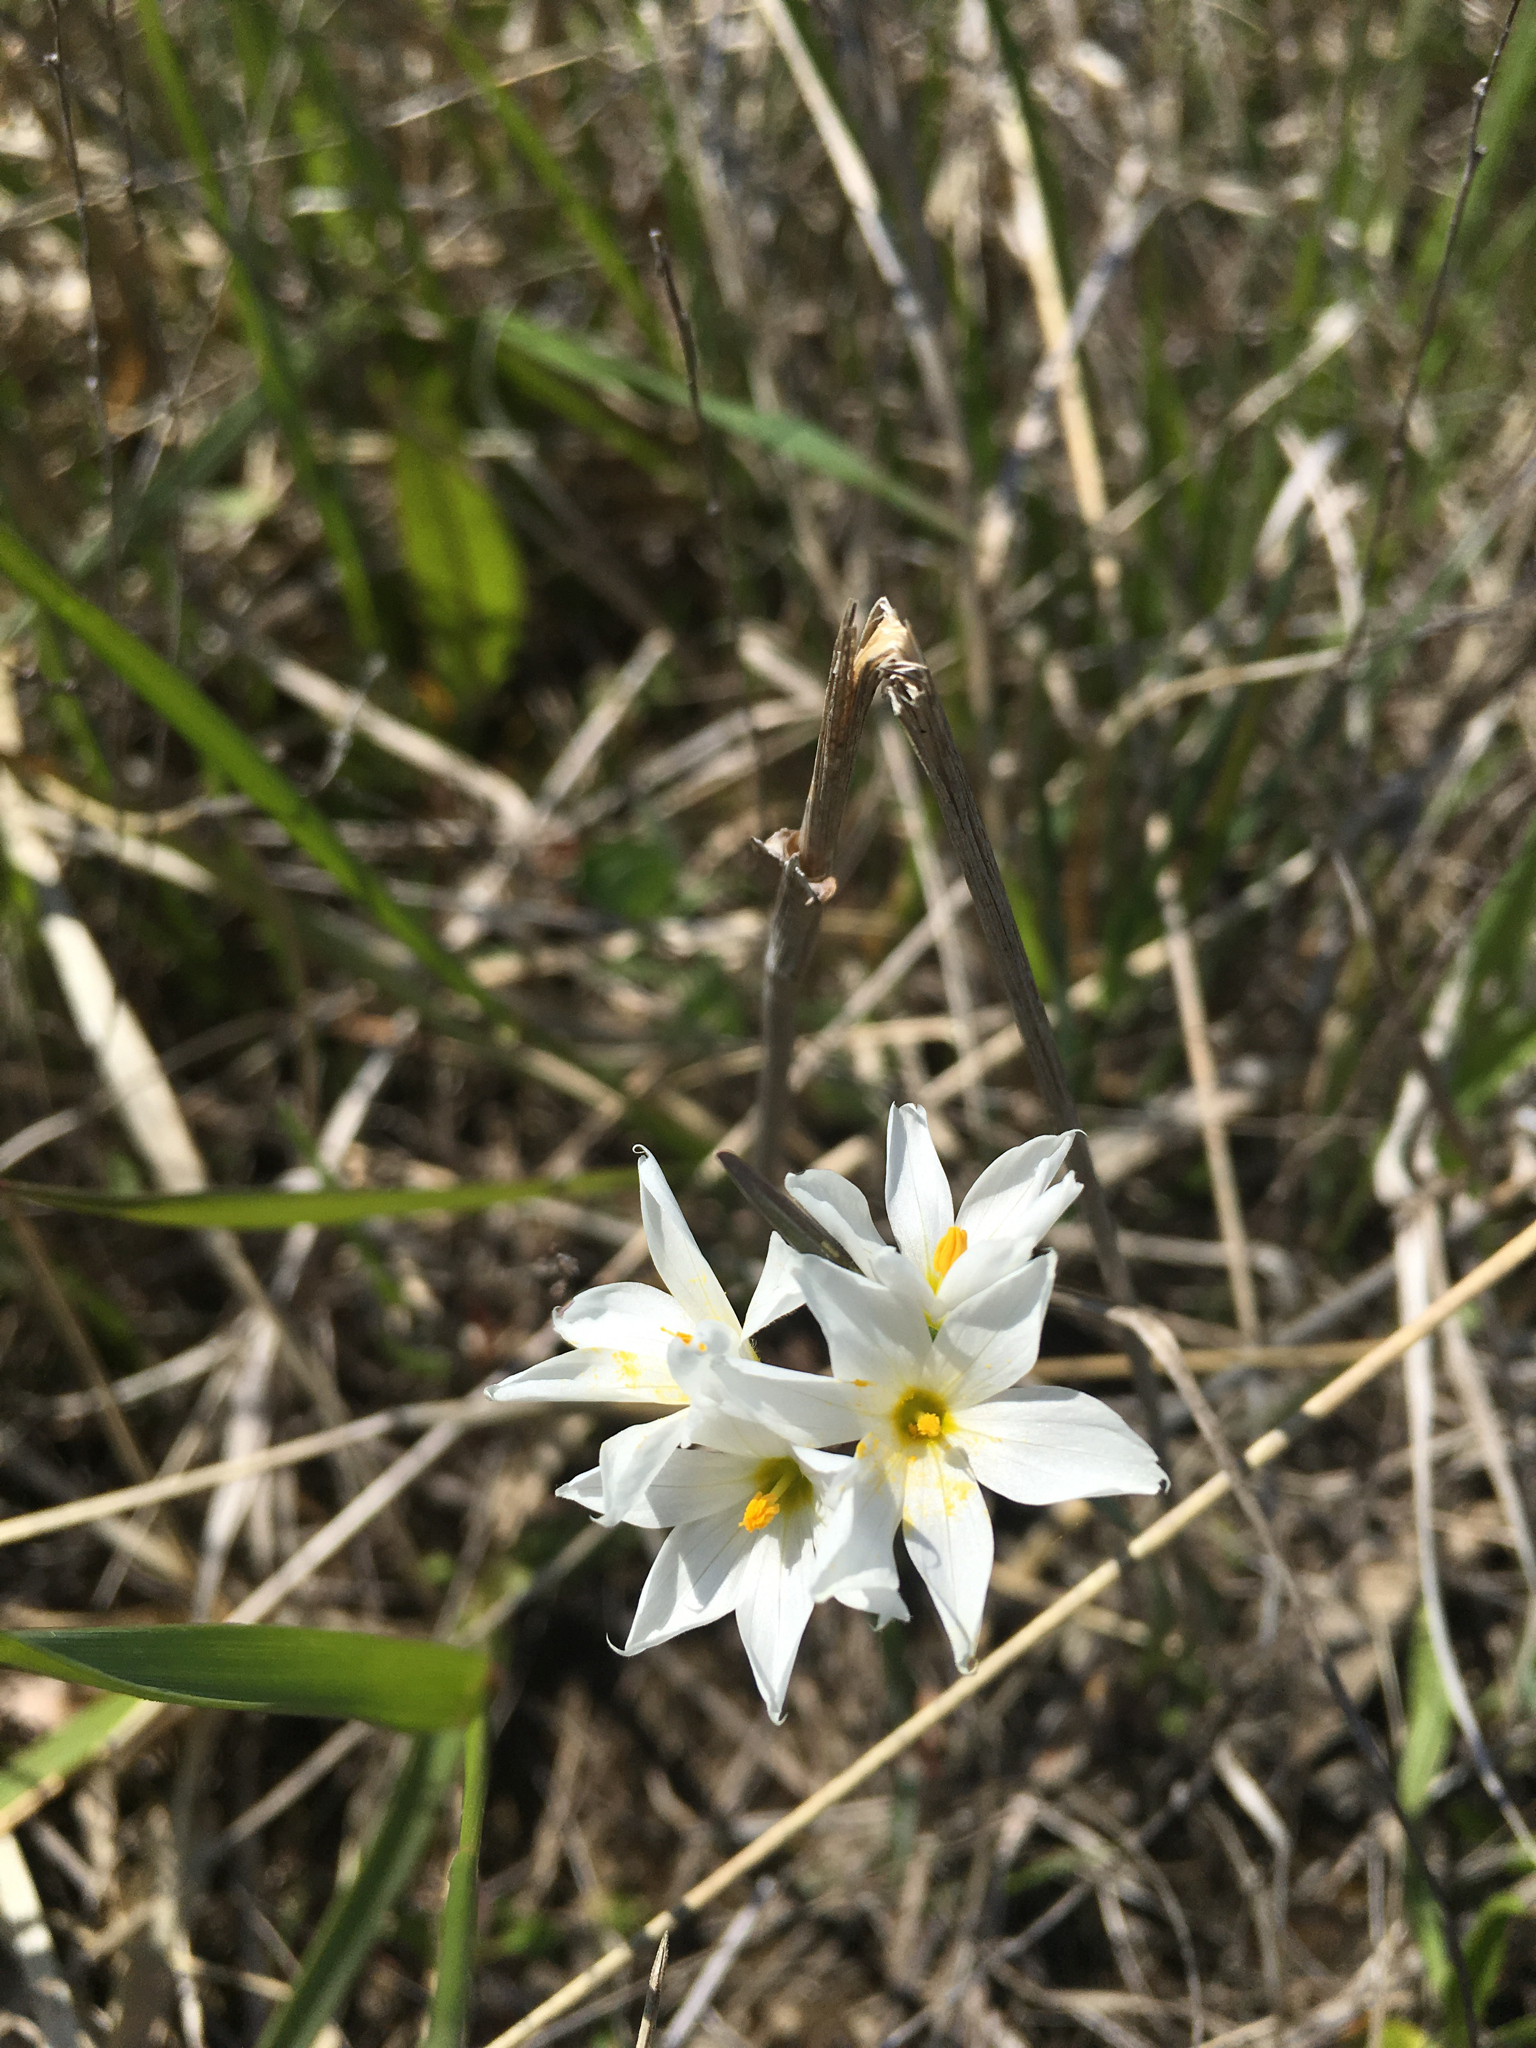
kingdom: Plantae
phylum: Tracheophyta
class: Liliopsida
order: Asparagales
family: Iridaceae
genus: Sisyrinchium
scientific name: Sisyrinchium albidum
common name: Pale blue-eyed-grass
